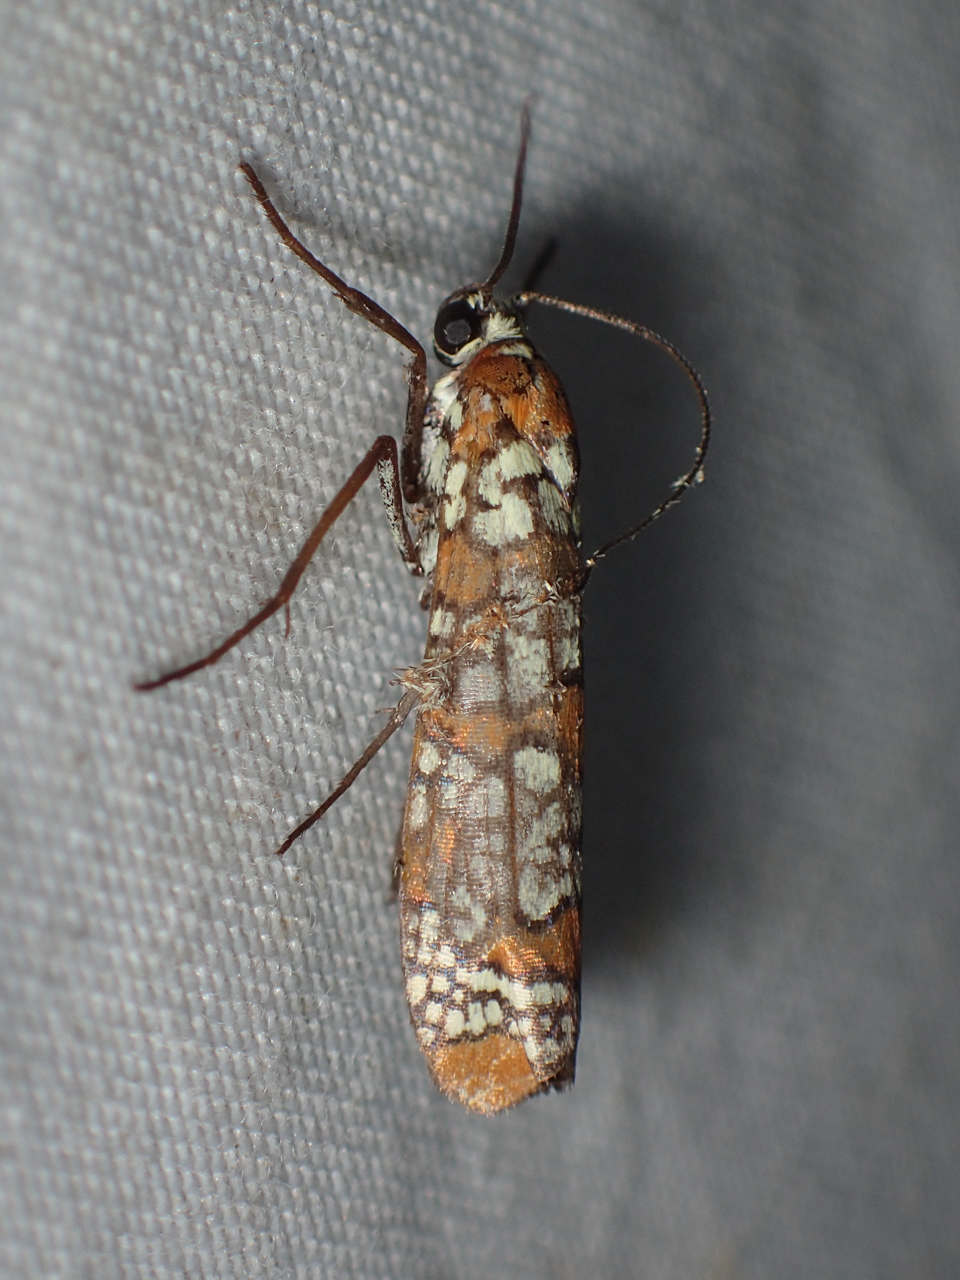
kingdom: Animalia
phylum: Arthropoda
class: Insecta
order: Lepidoptera
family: Attevidae
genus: Atteva
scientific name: Atteva punctella
